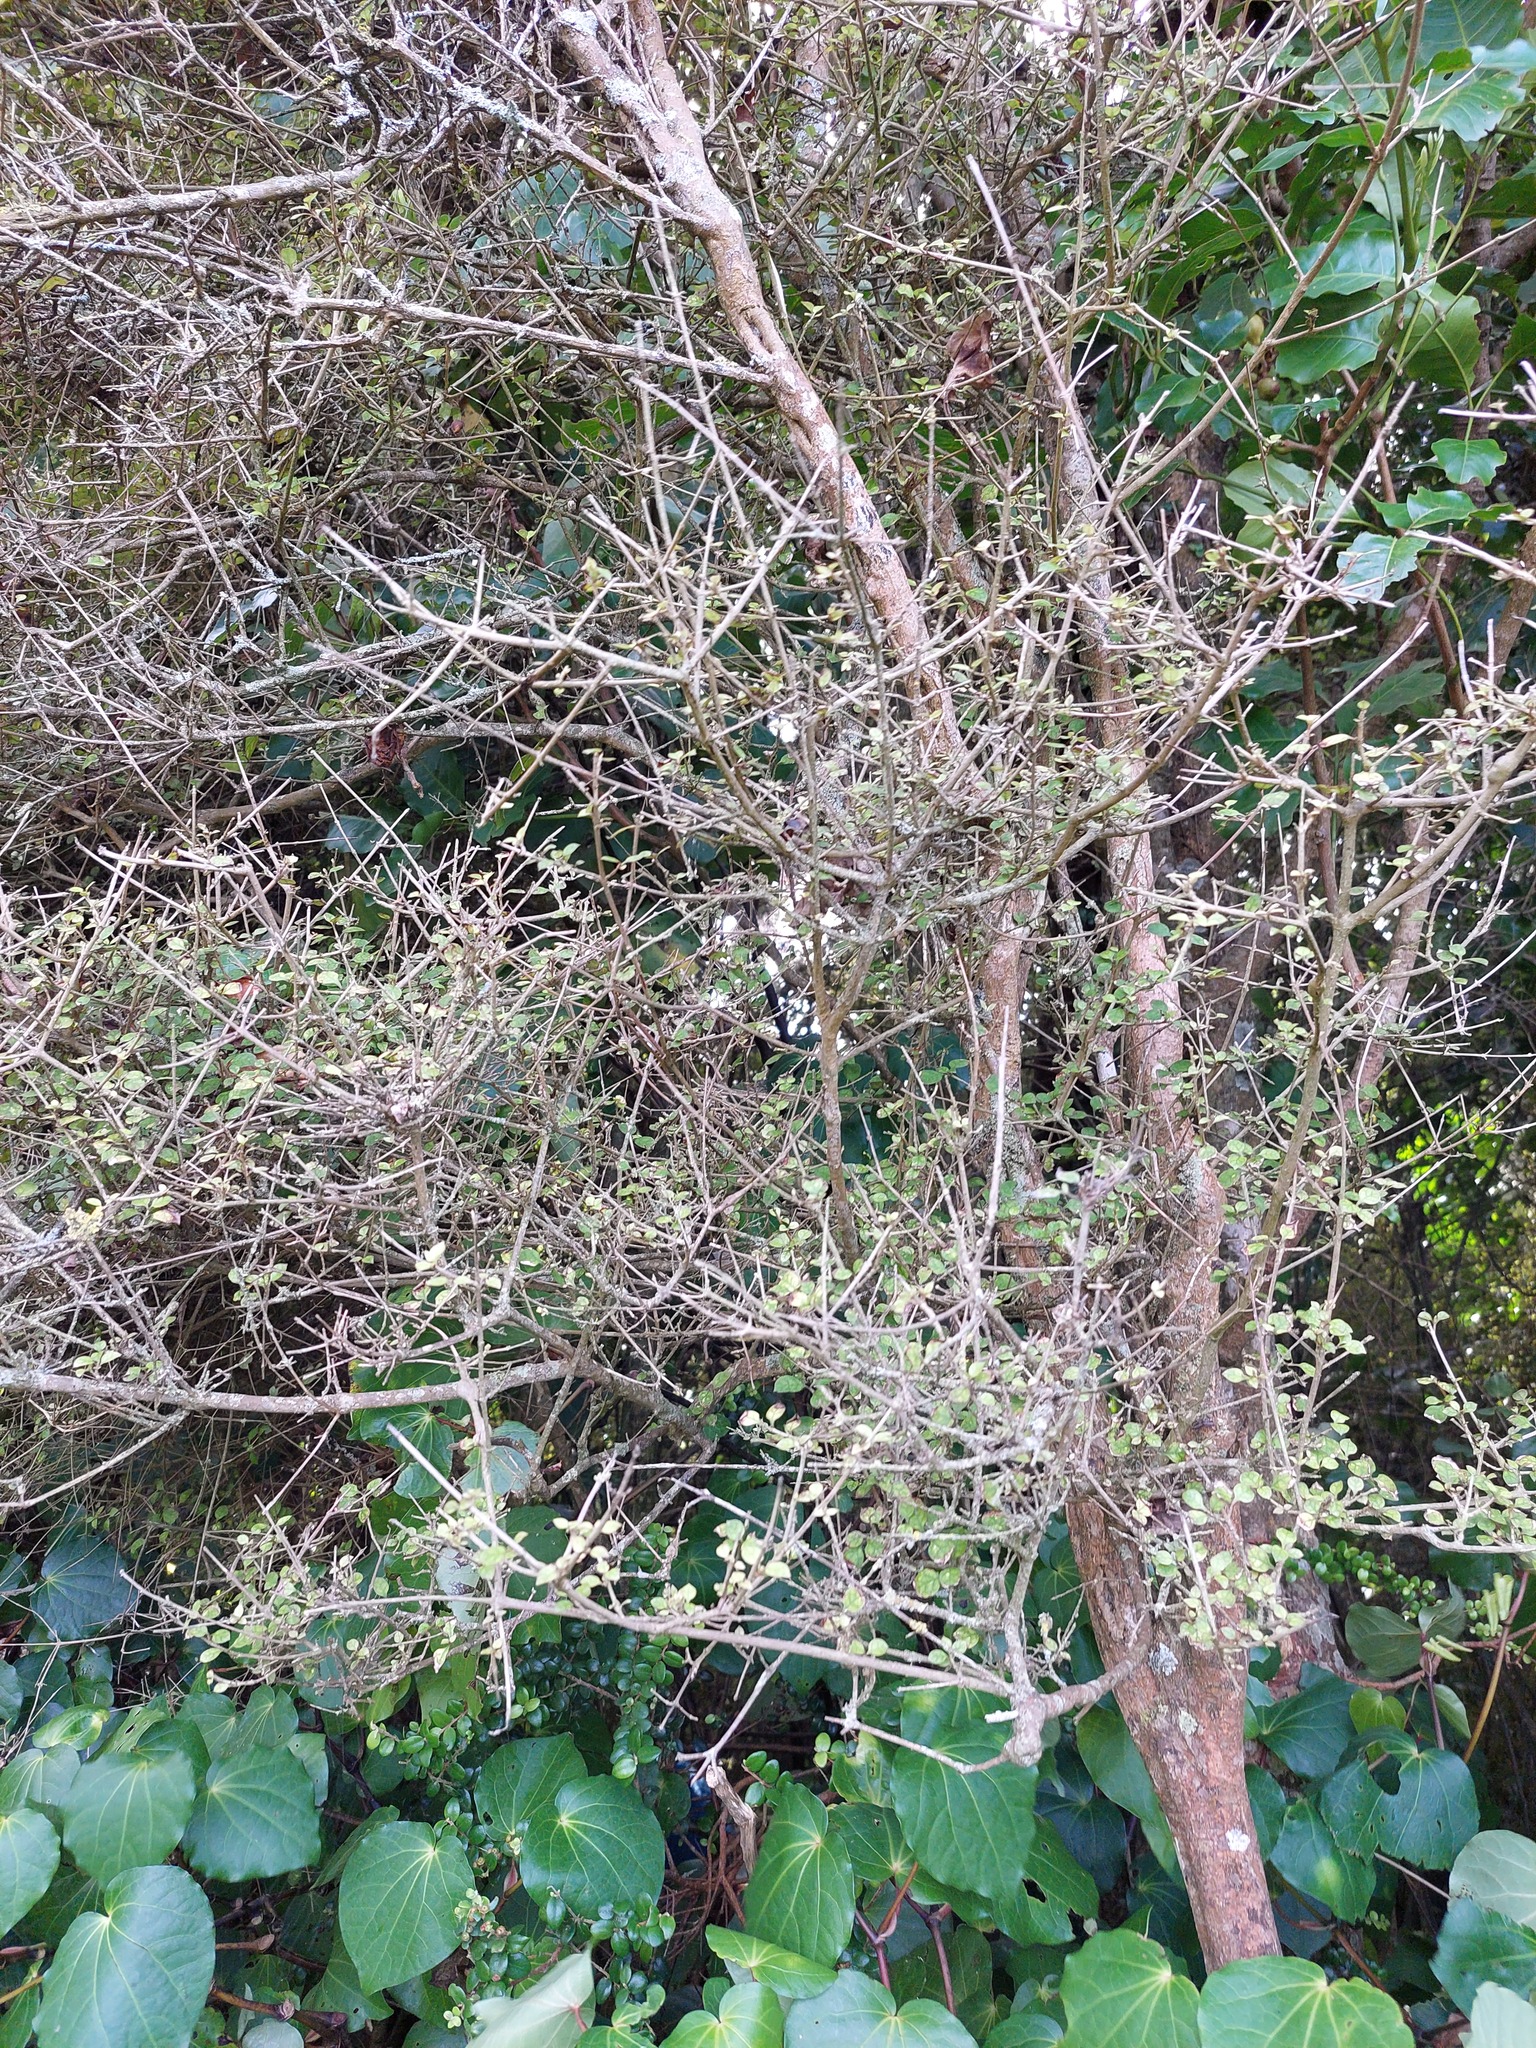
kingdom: Plantae
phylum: Tracheophyta
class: Magnoliopsida
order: Gentianales
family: Rubiaceae
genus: Coprosma
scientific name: Coprosma areolata
